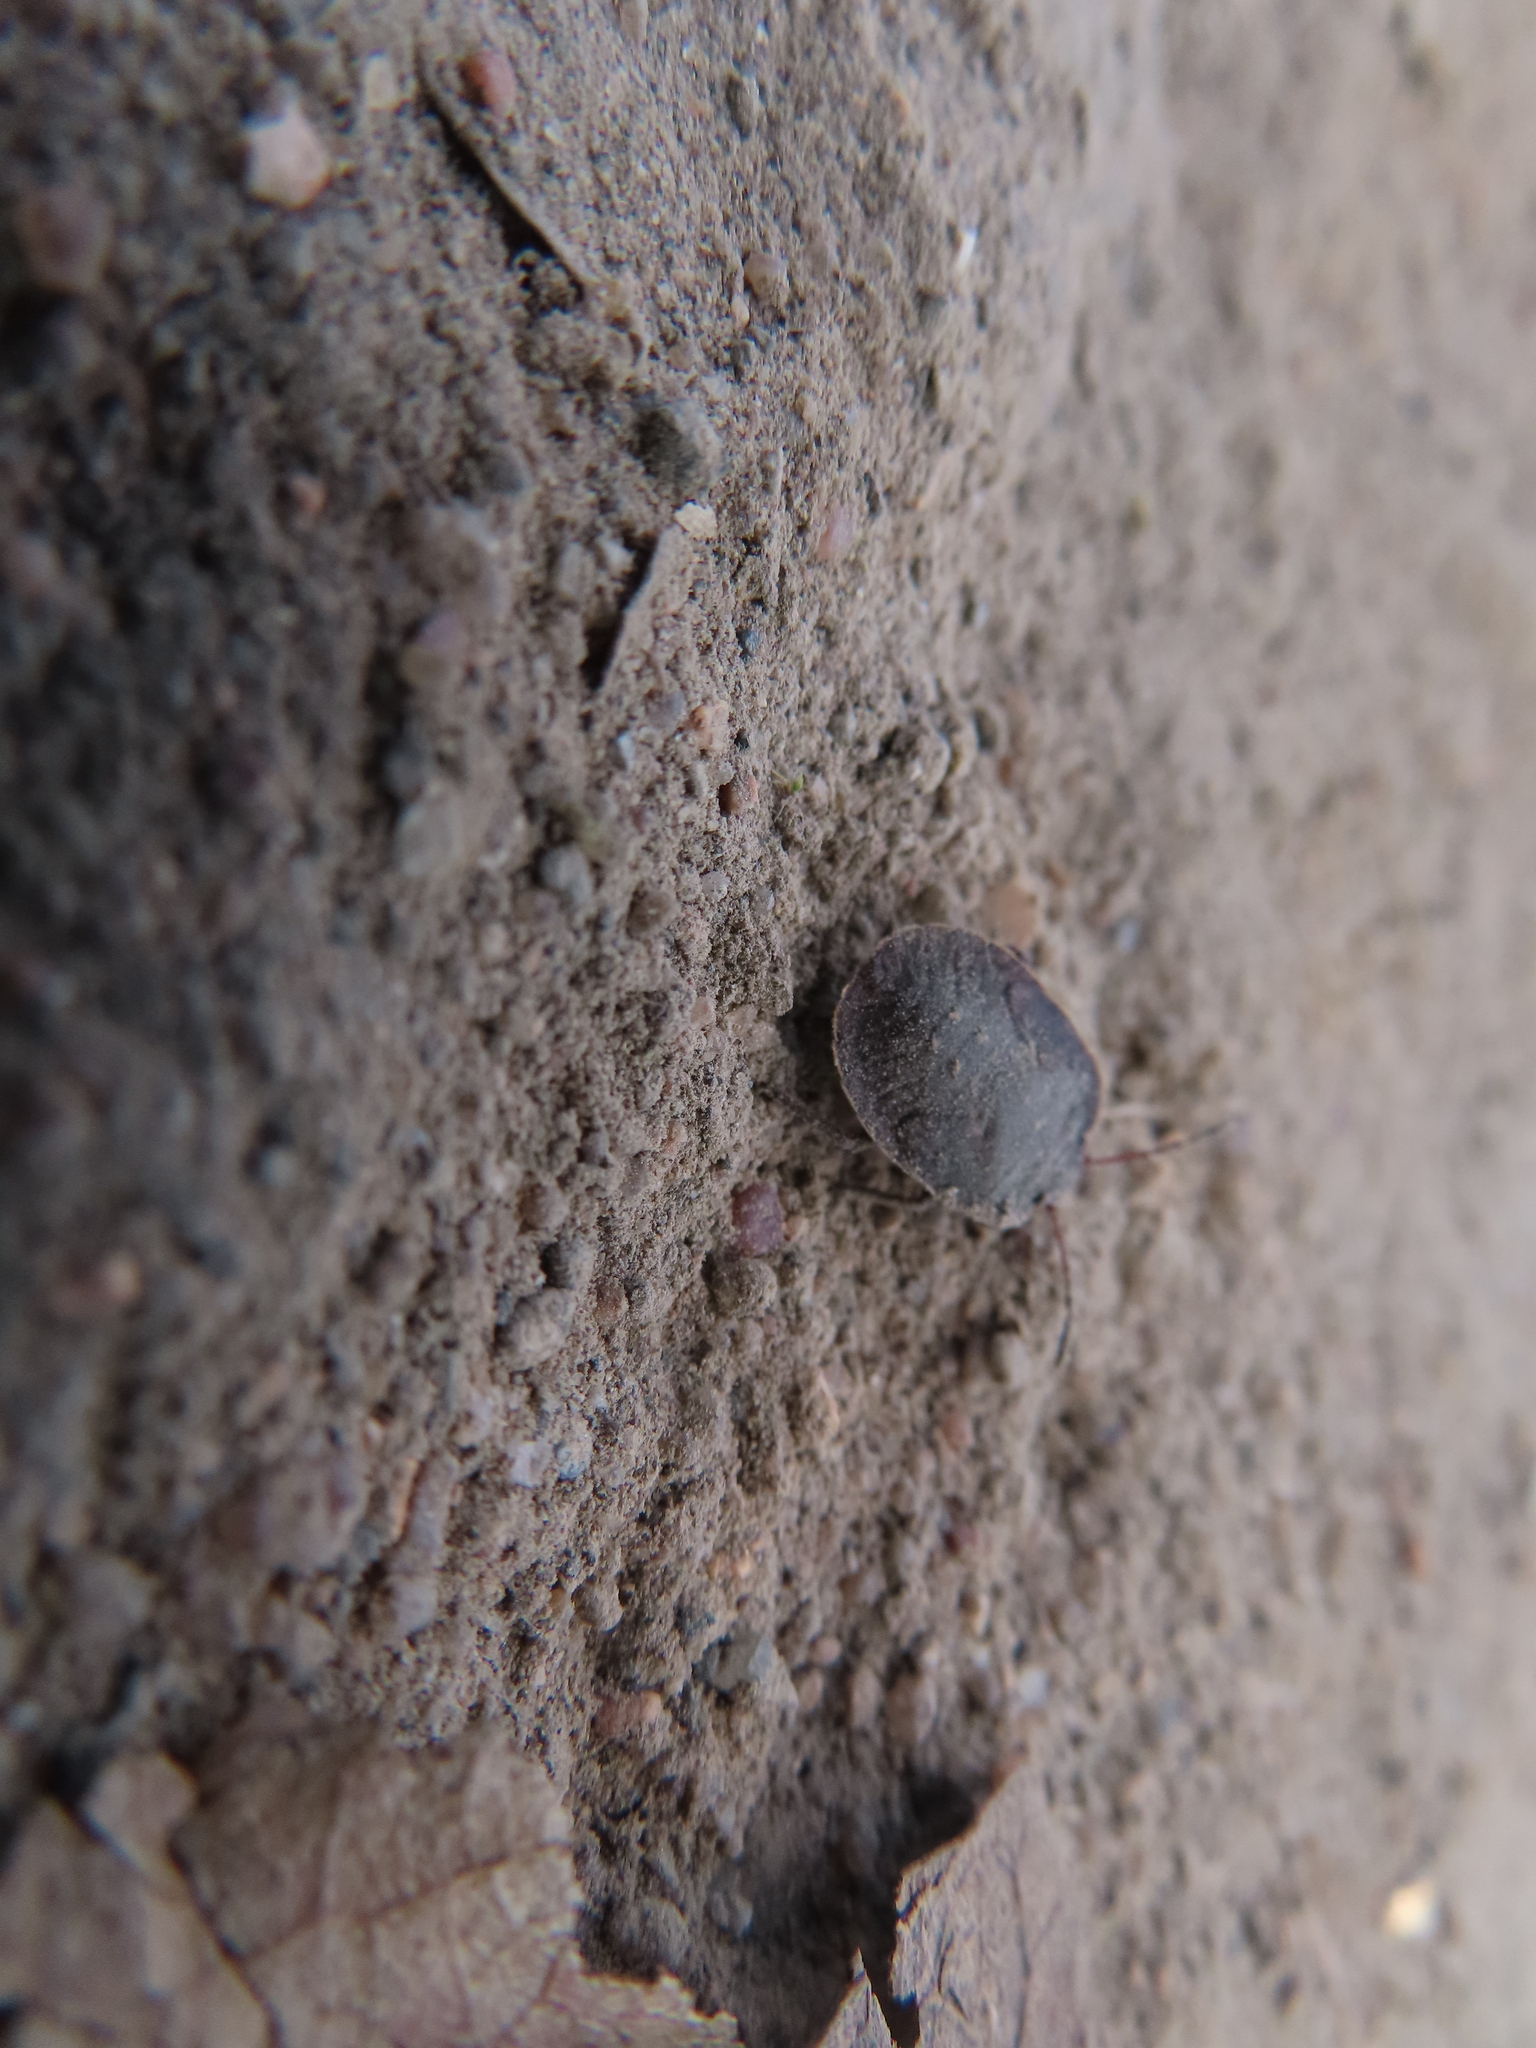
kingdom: Animalia
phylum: Arthropoda
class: Insecta
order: Hemiptera
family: Pentatomidae
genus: Menecles
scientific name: Menecles insertus
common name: Elf shoe stink bug
